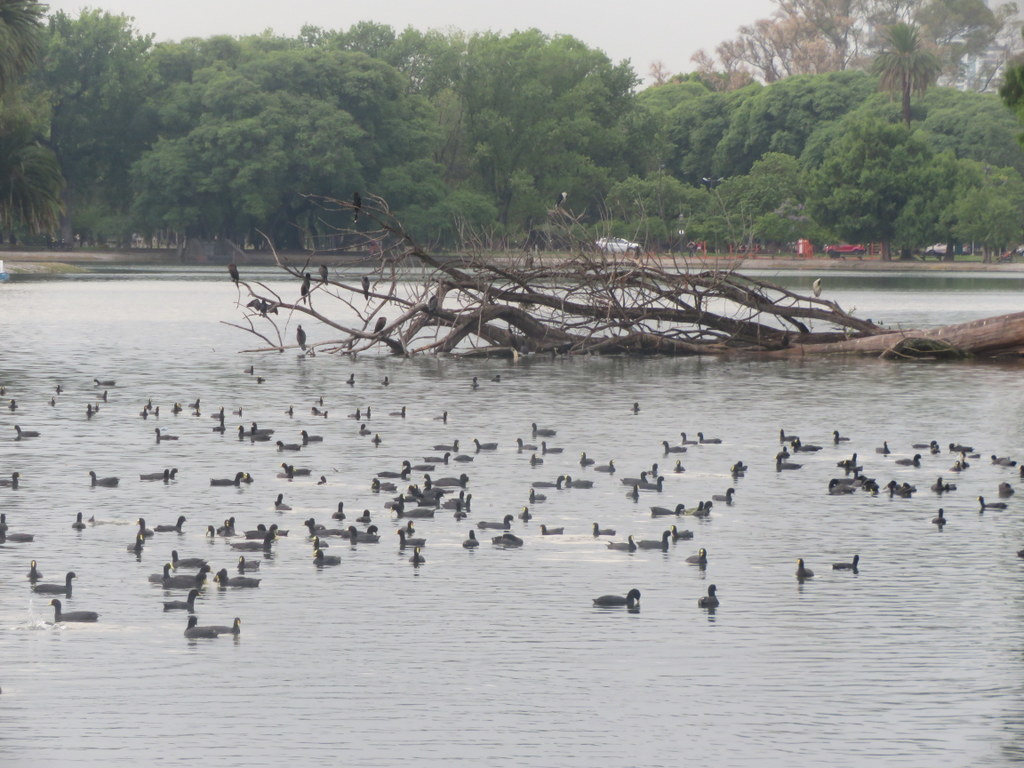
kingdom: Animalia
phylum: Chordata
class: Aves
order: Gruiformes
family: Rallidae
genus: Fulica
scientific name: Fulica leucoptera
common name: White-winged coot
